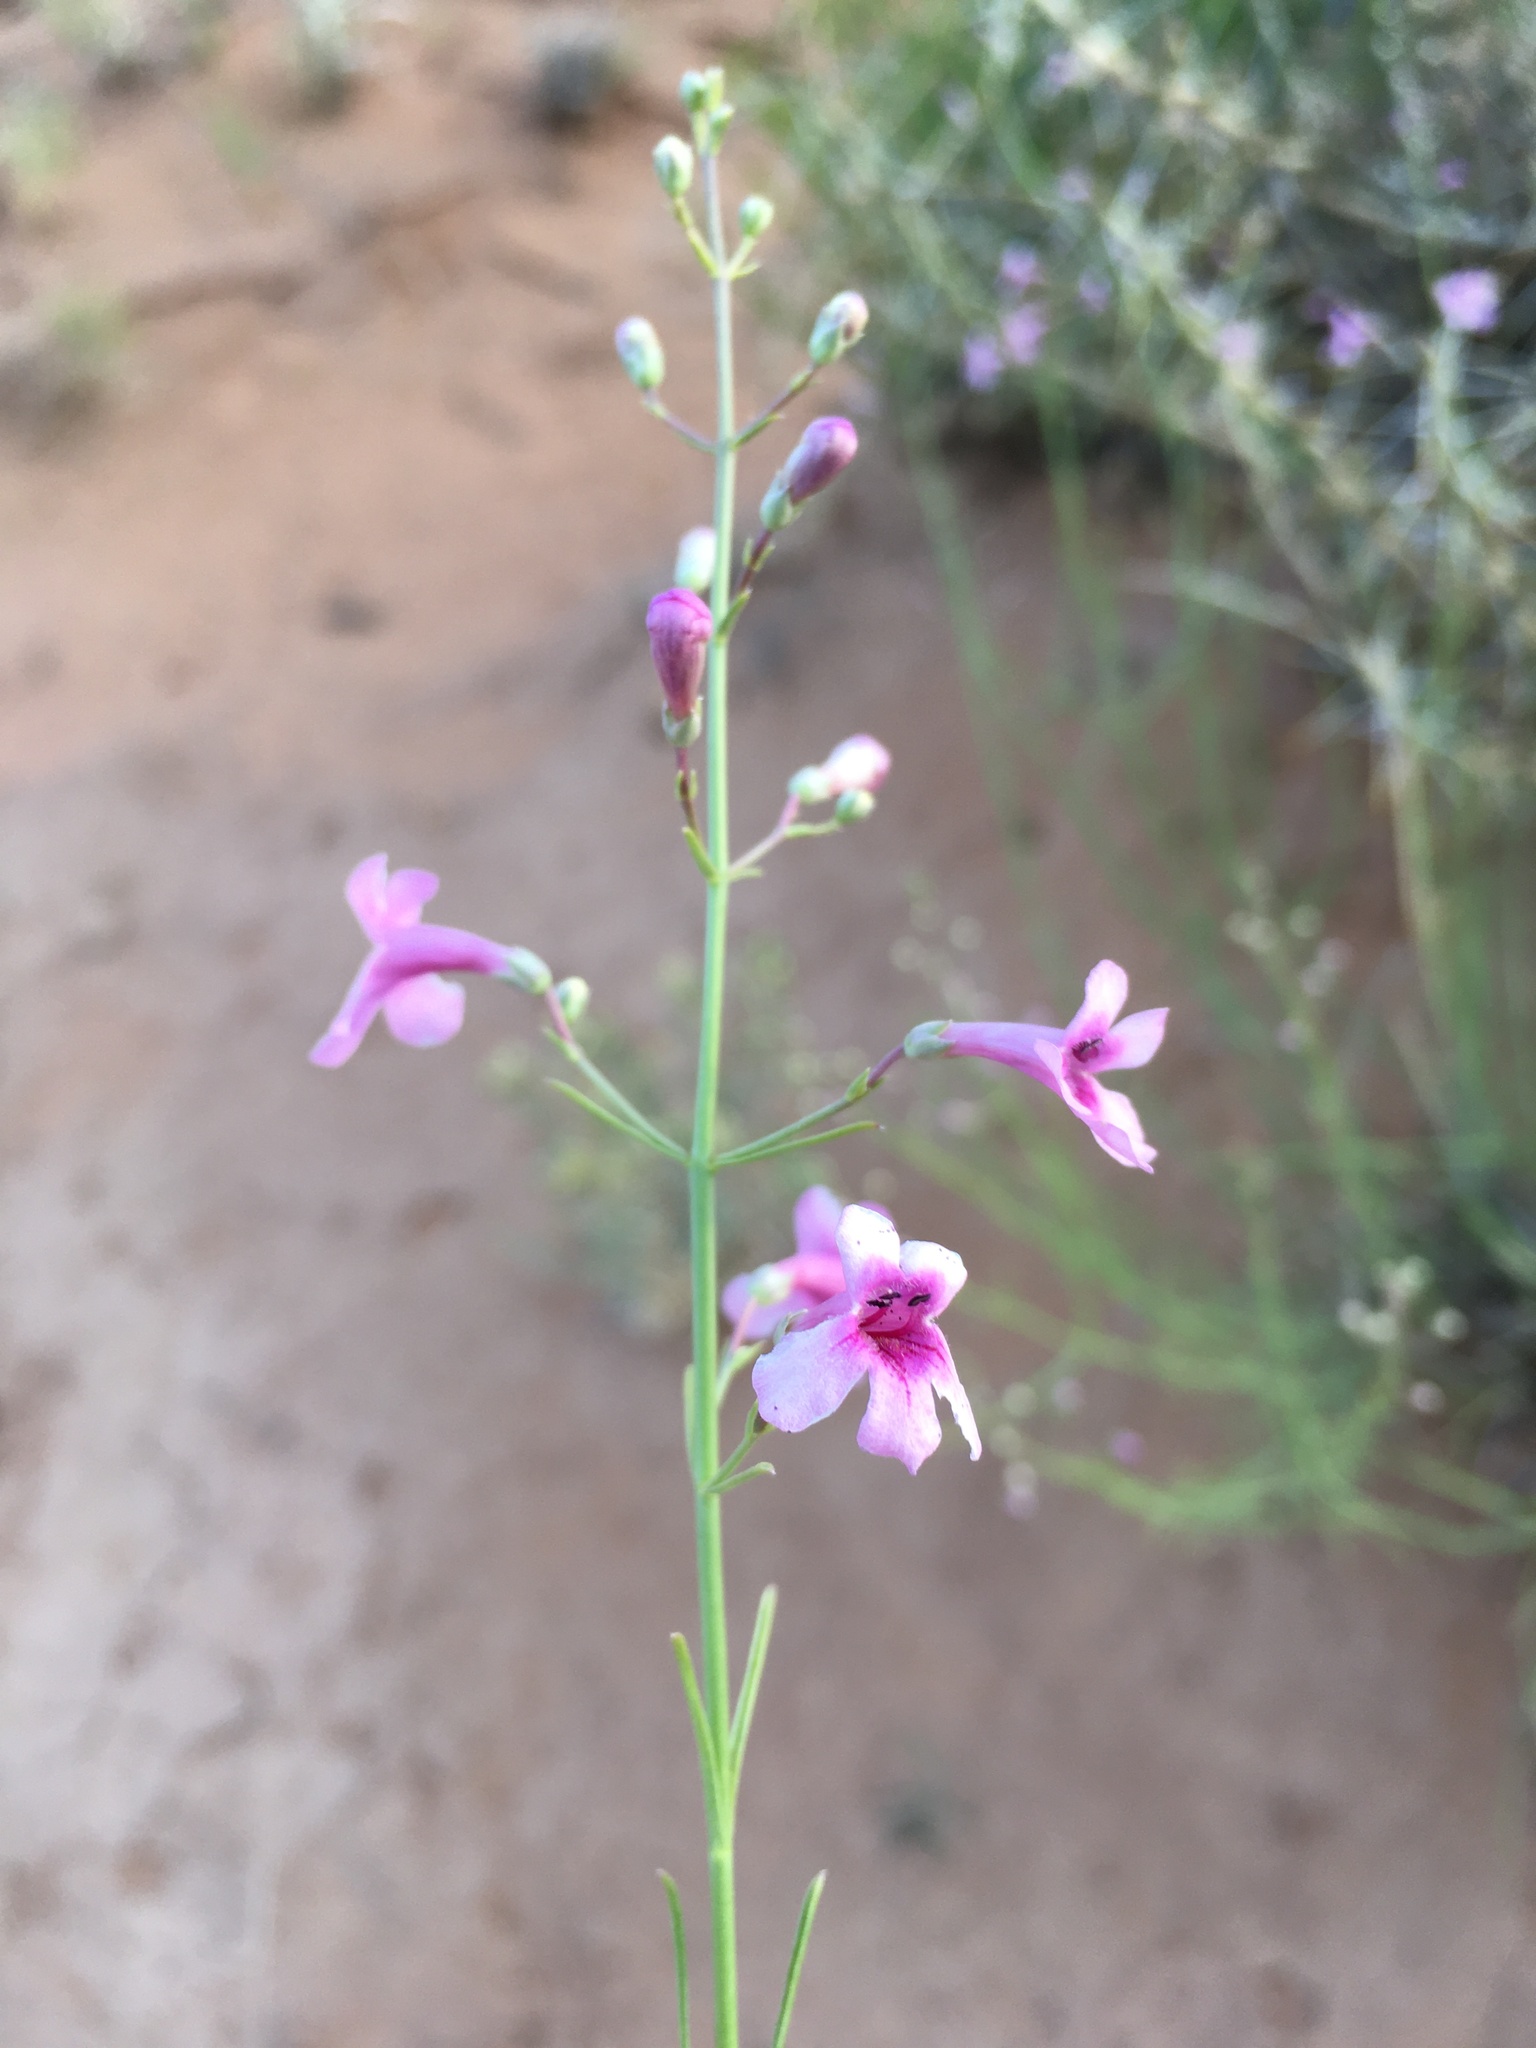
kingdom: Plantae
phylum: Tracheophyta
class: Magnoliopsida
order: Lamiales
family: Plantaginaceae
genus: Penstemon
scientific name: Penstemon thurberi
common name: Thurber's beardtongue
